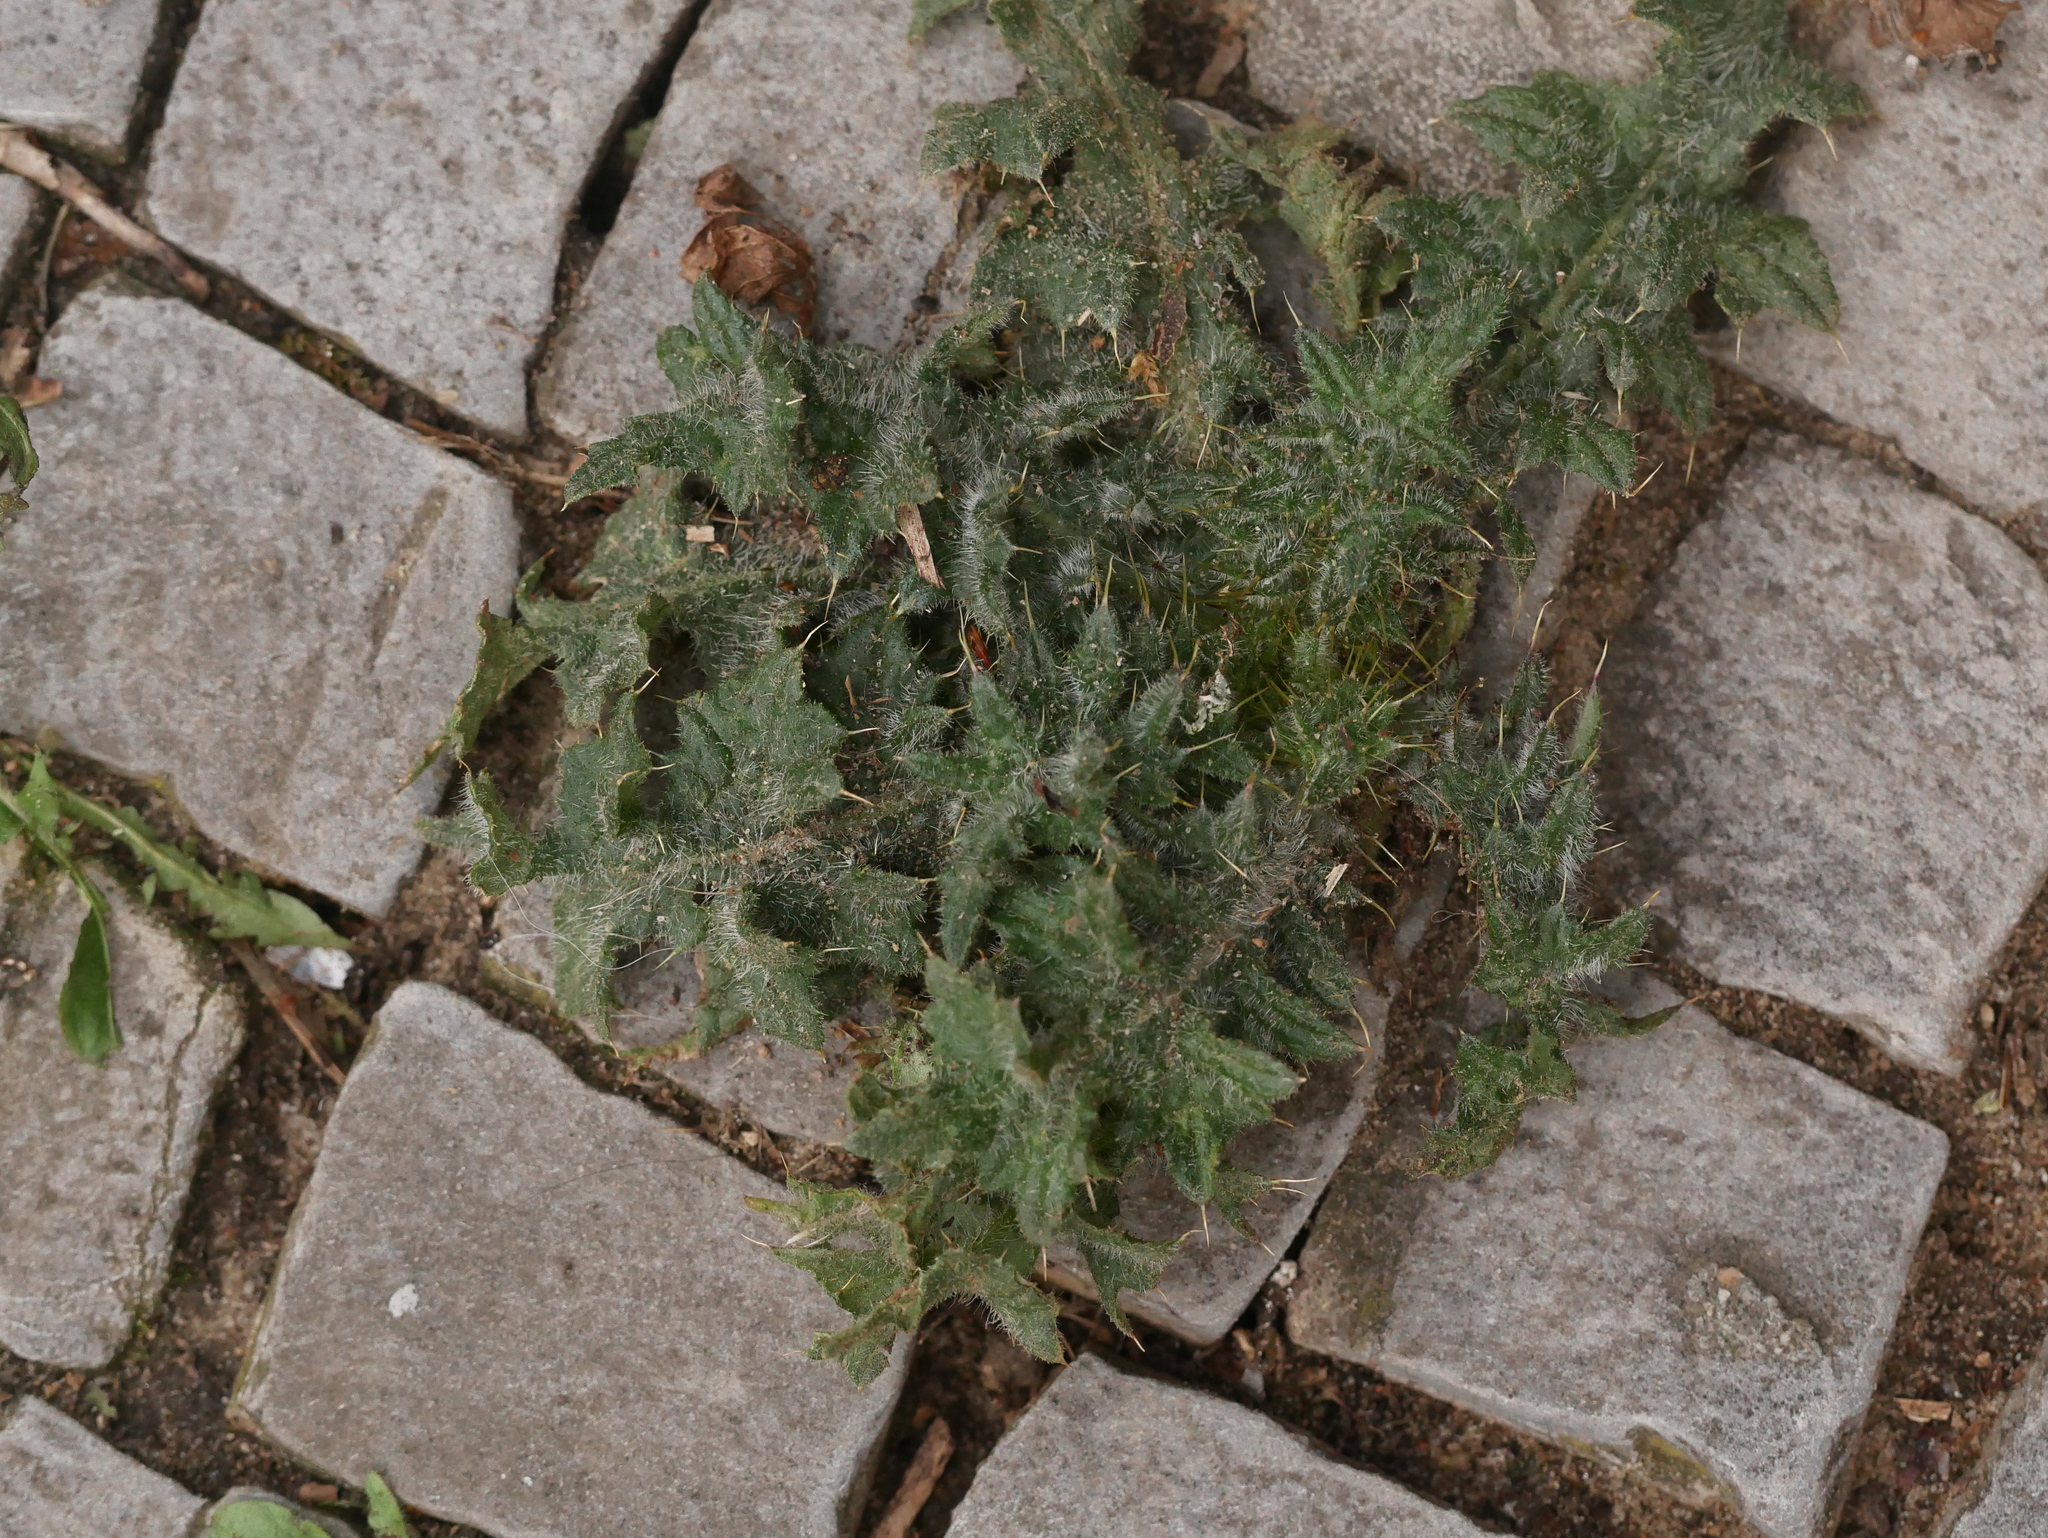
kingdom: Plantae
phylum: Tracheophyta
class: Magnoliopsida
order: Asterales
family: Asteraceae
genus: Cirsium
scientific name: Cirsium vulgare
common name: Bull thistle
